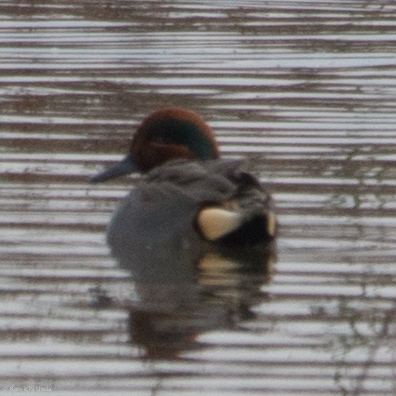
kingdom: Animalia
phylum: Chordata
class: Aves
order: Anseriformes
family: Anatidae
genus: Anas
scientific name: Anas crecca
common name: Eurasian teal
